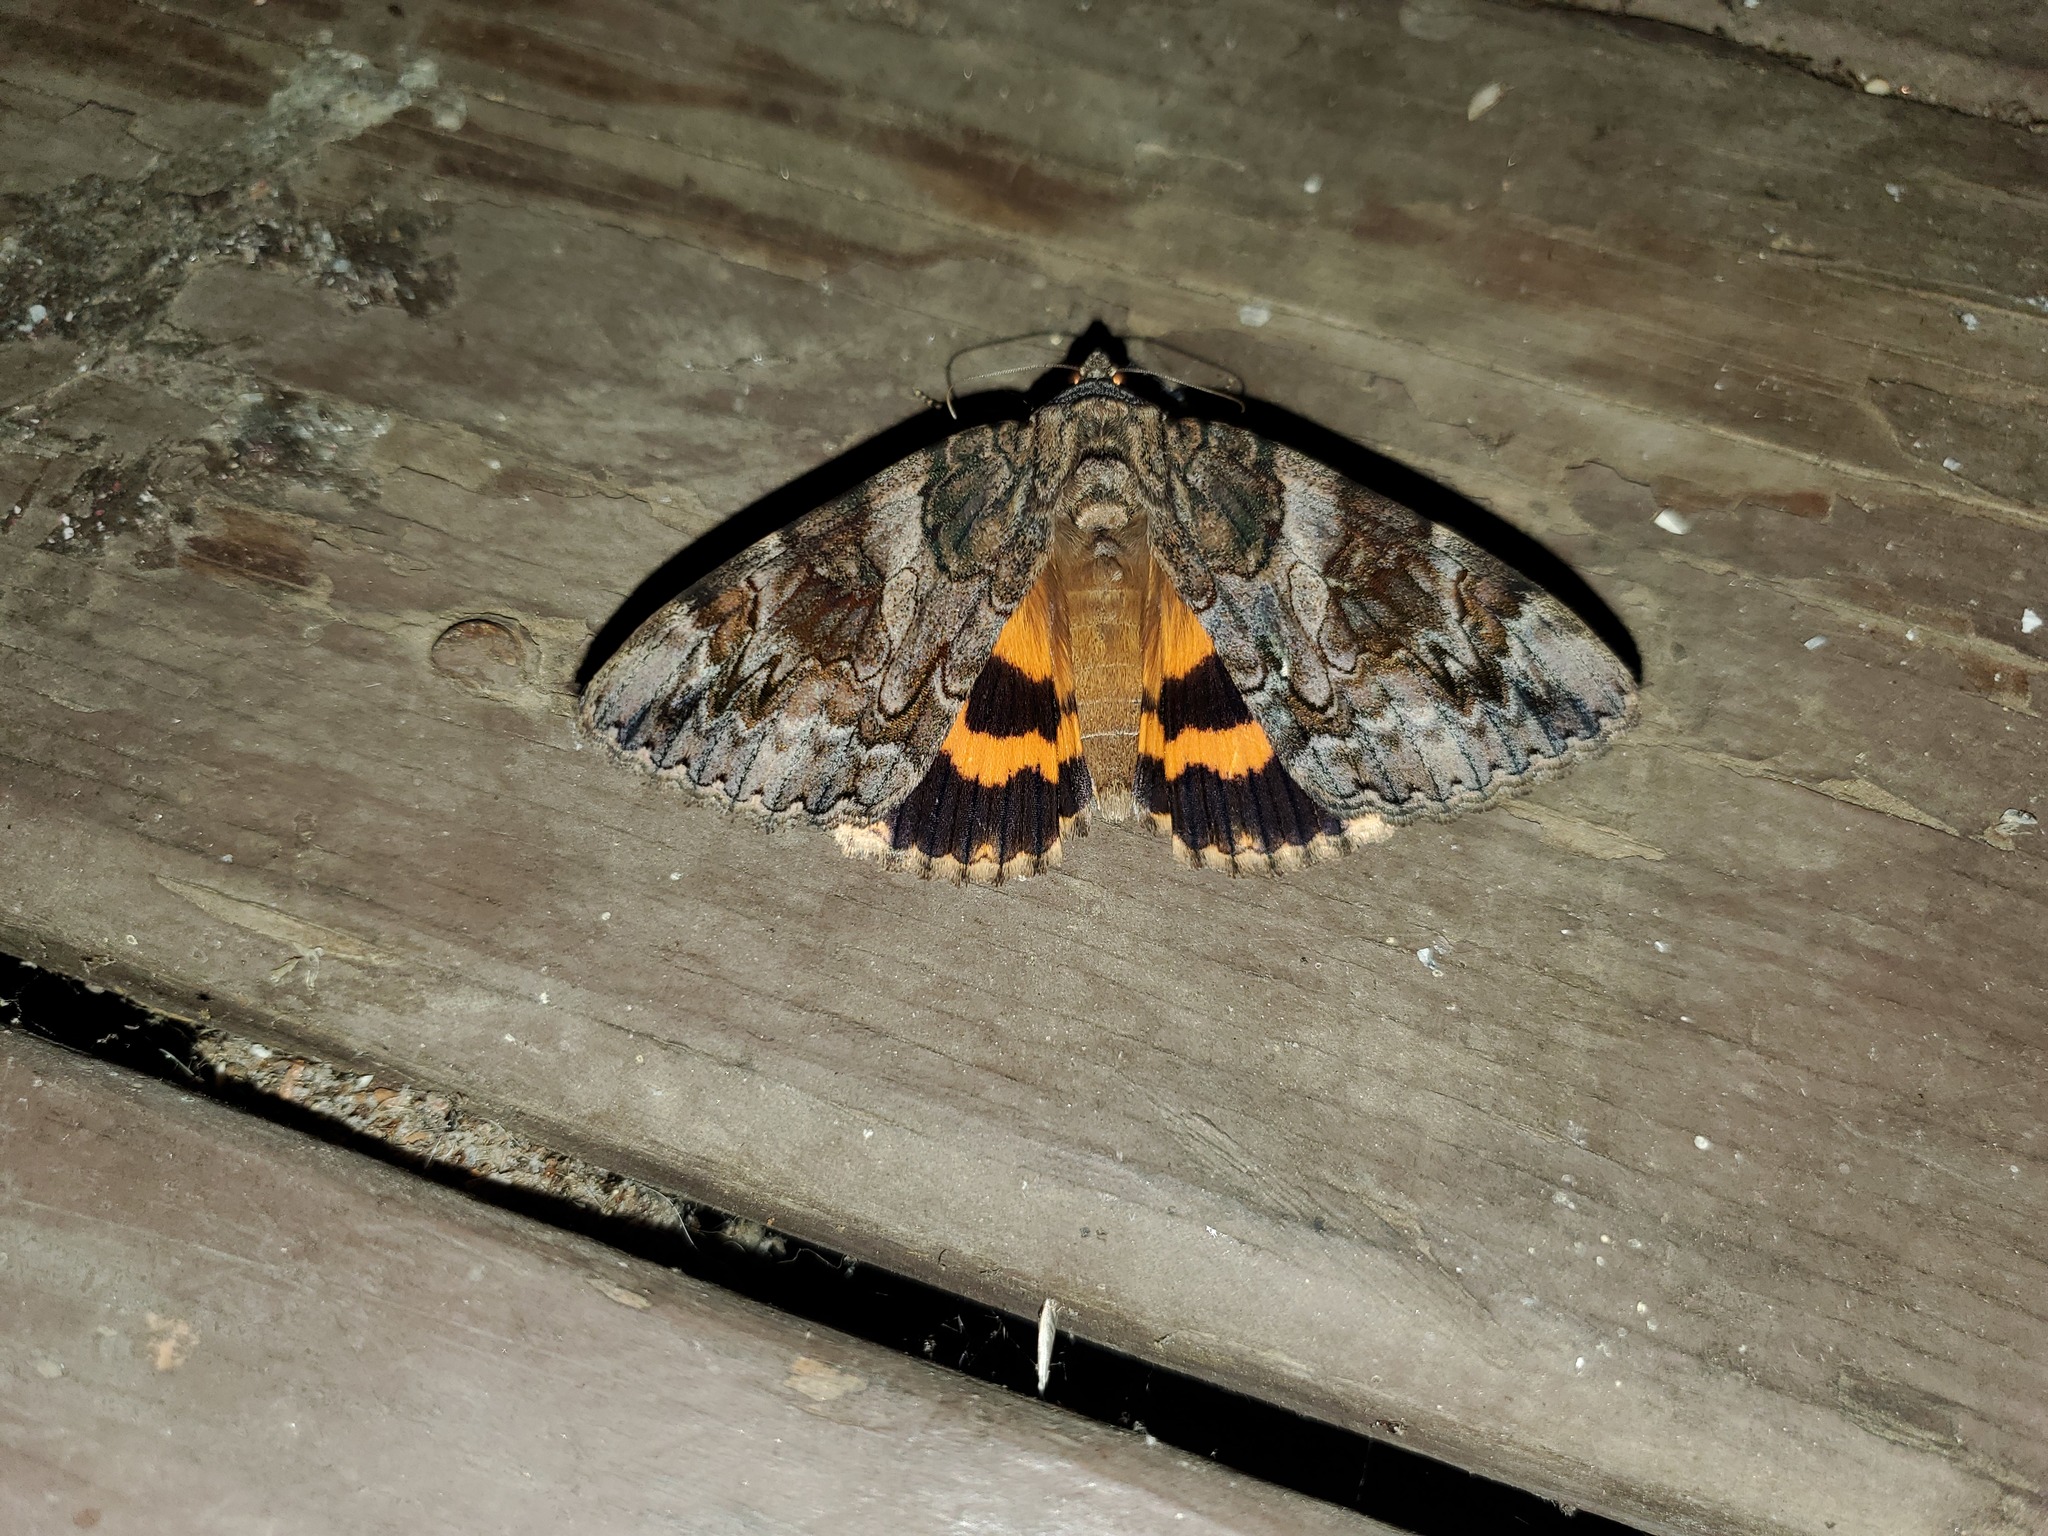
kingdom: Animalia
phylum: Arthropoda
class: Insecta
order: Lepidoptera
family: Erebidae
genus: Catocala
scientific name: Catocala piatrix
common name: The penitent underwing
